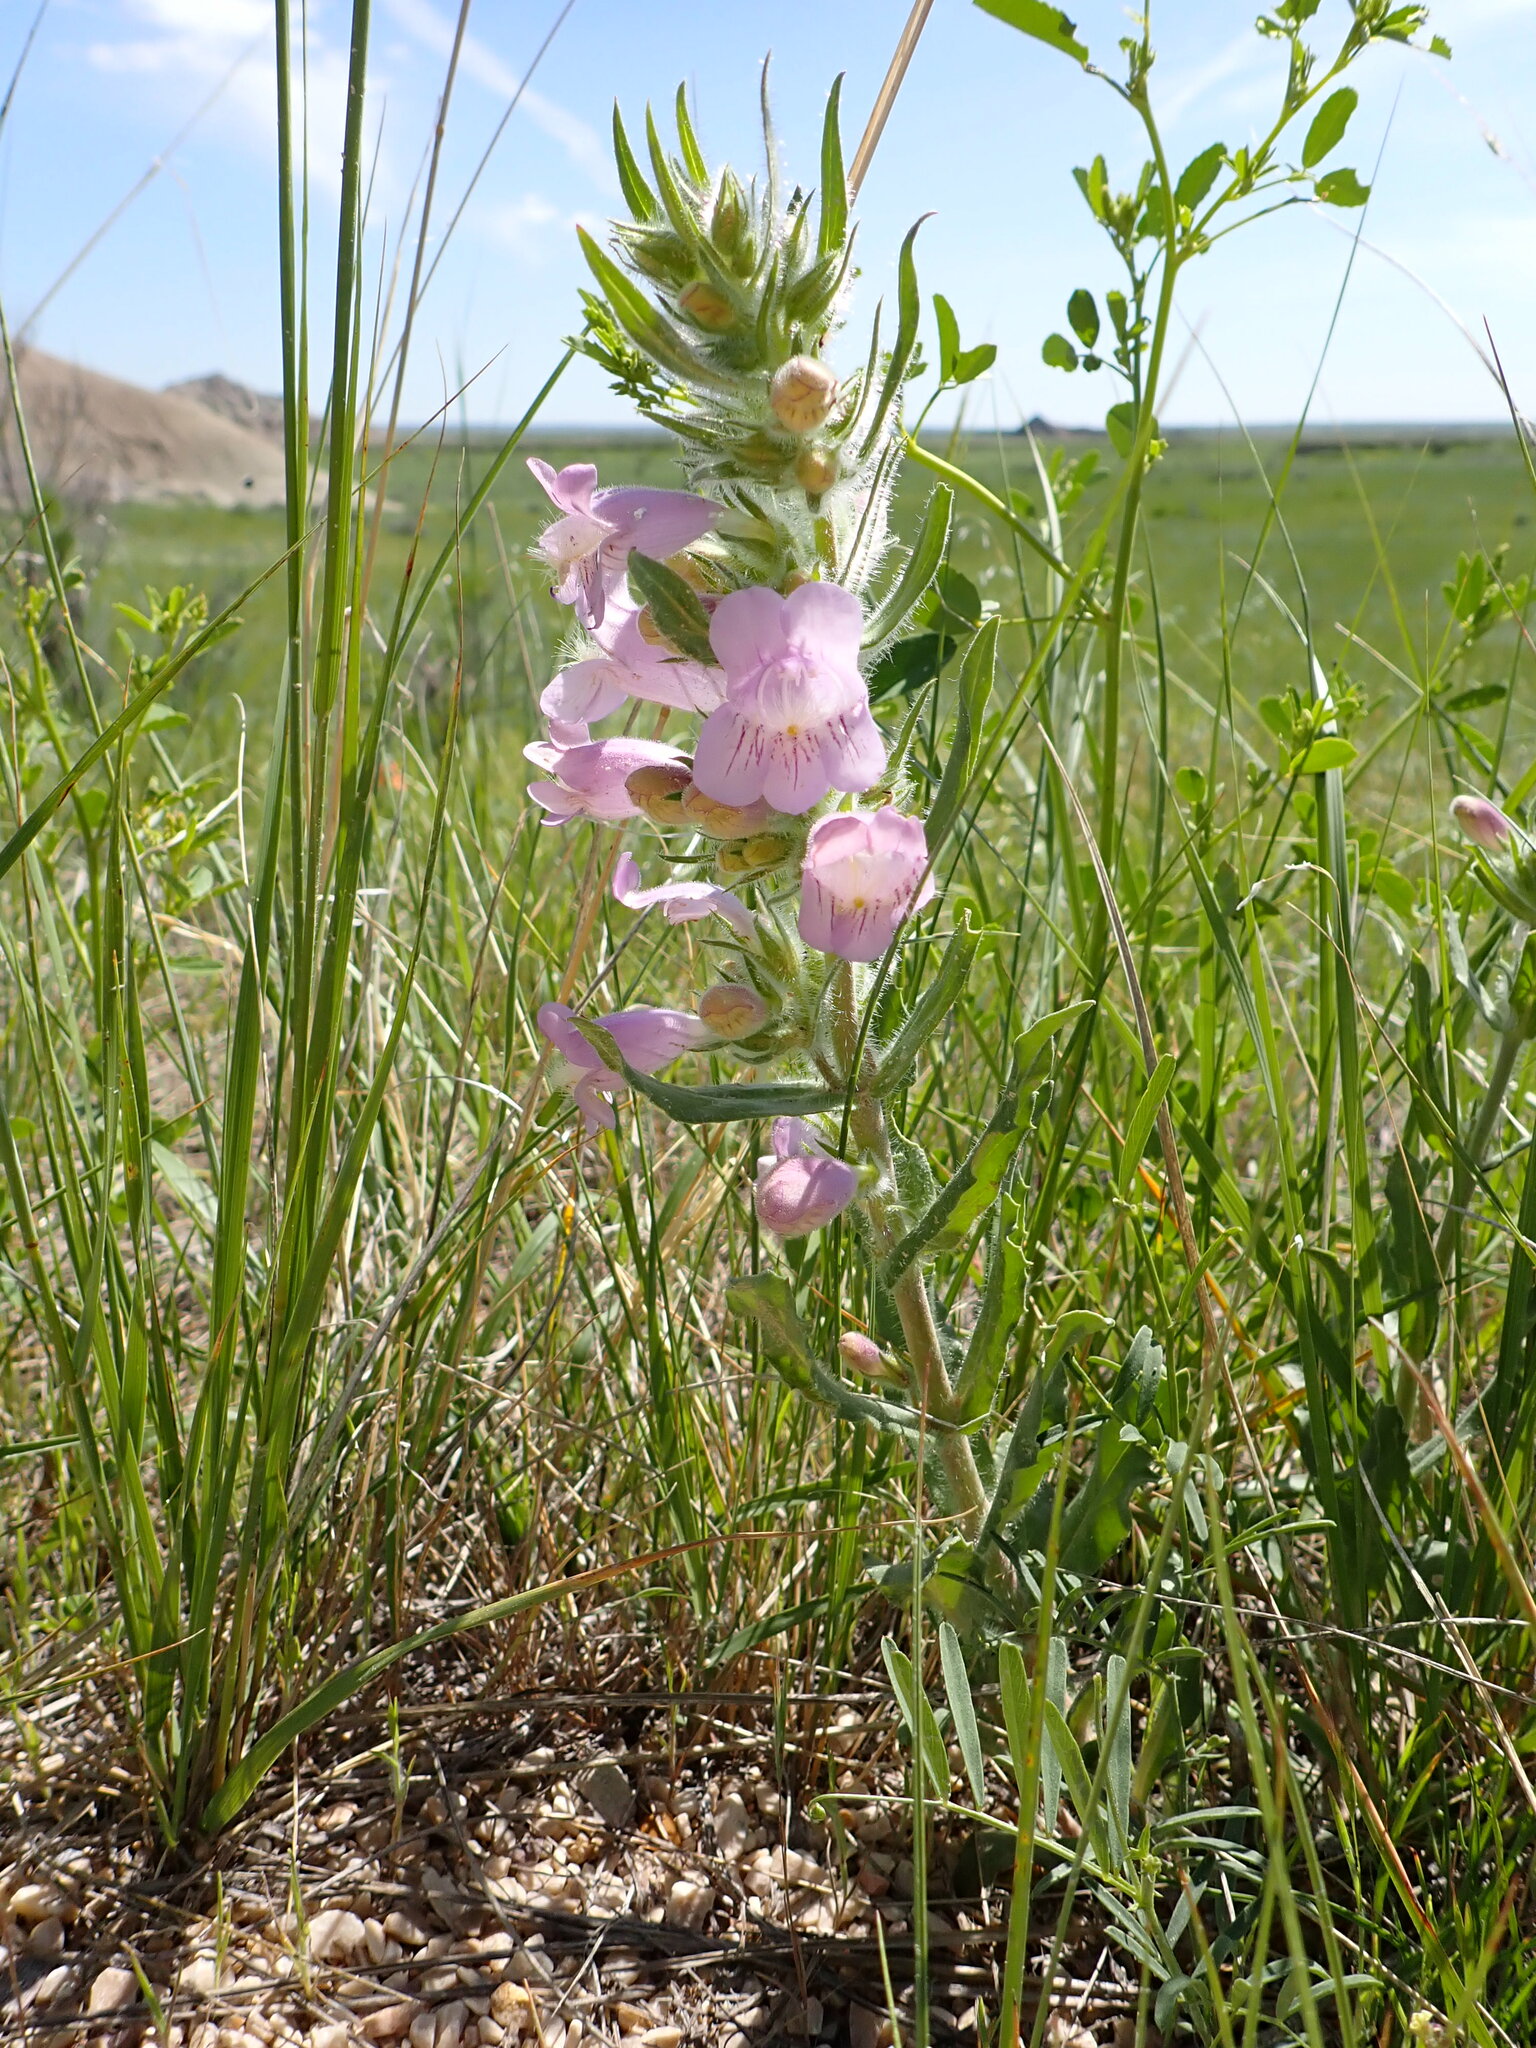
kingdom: Plantae
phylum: Tracheophyta
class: Magnoliopsida
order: Lamiales
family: Plantaginaceae
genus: Penstemon
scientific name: Penstemon eriantherus
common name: Crested beardtongue
